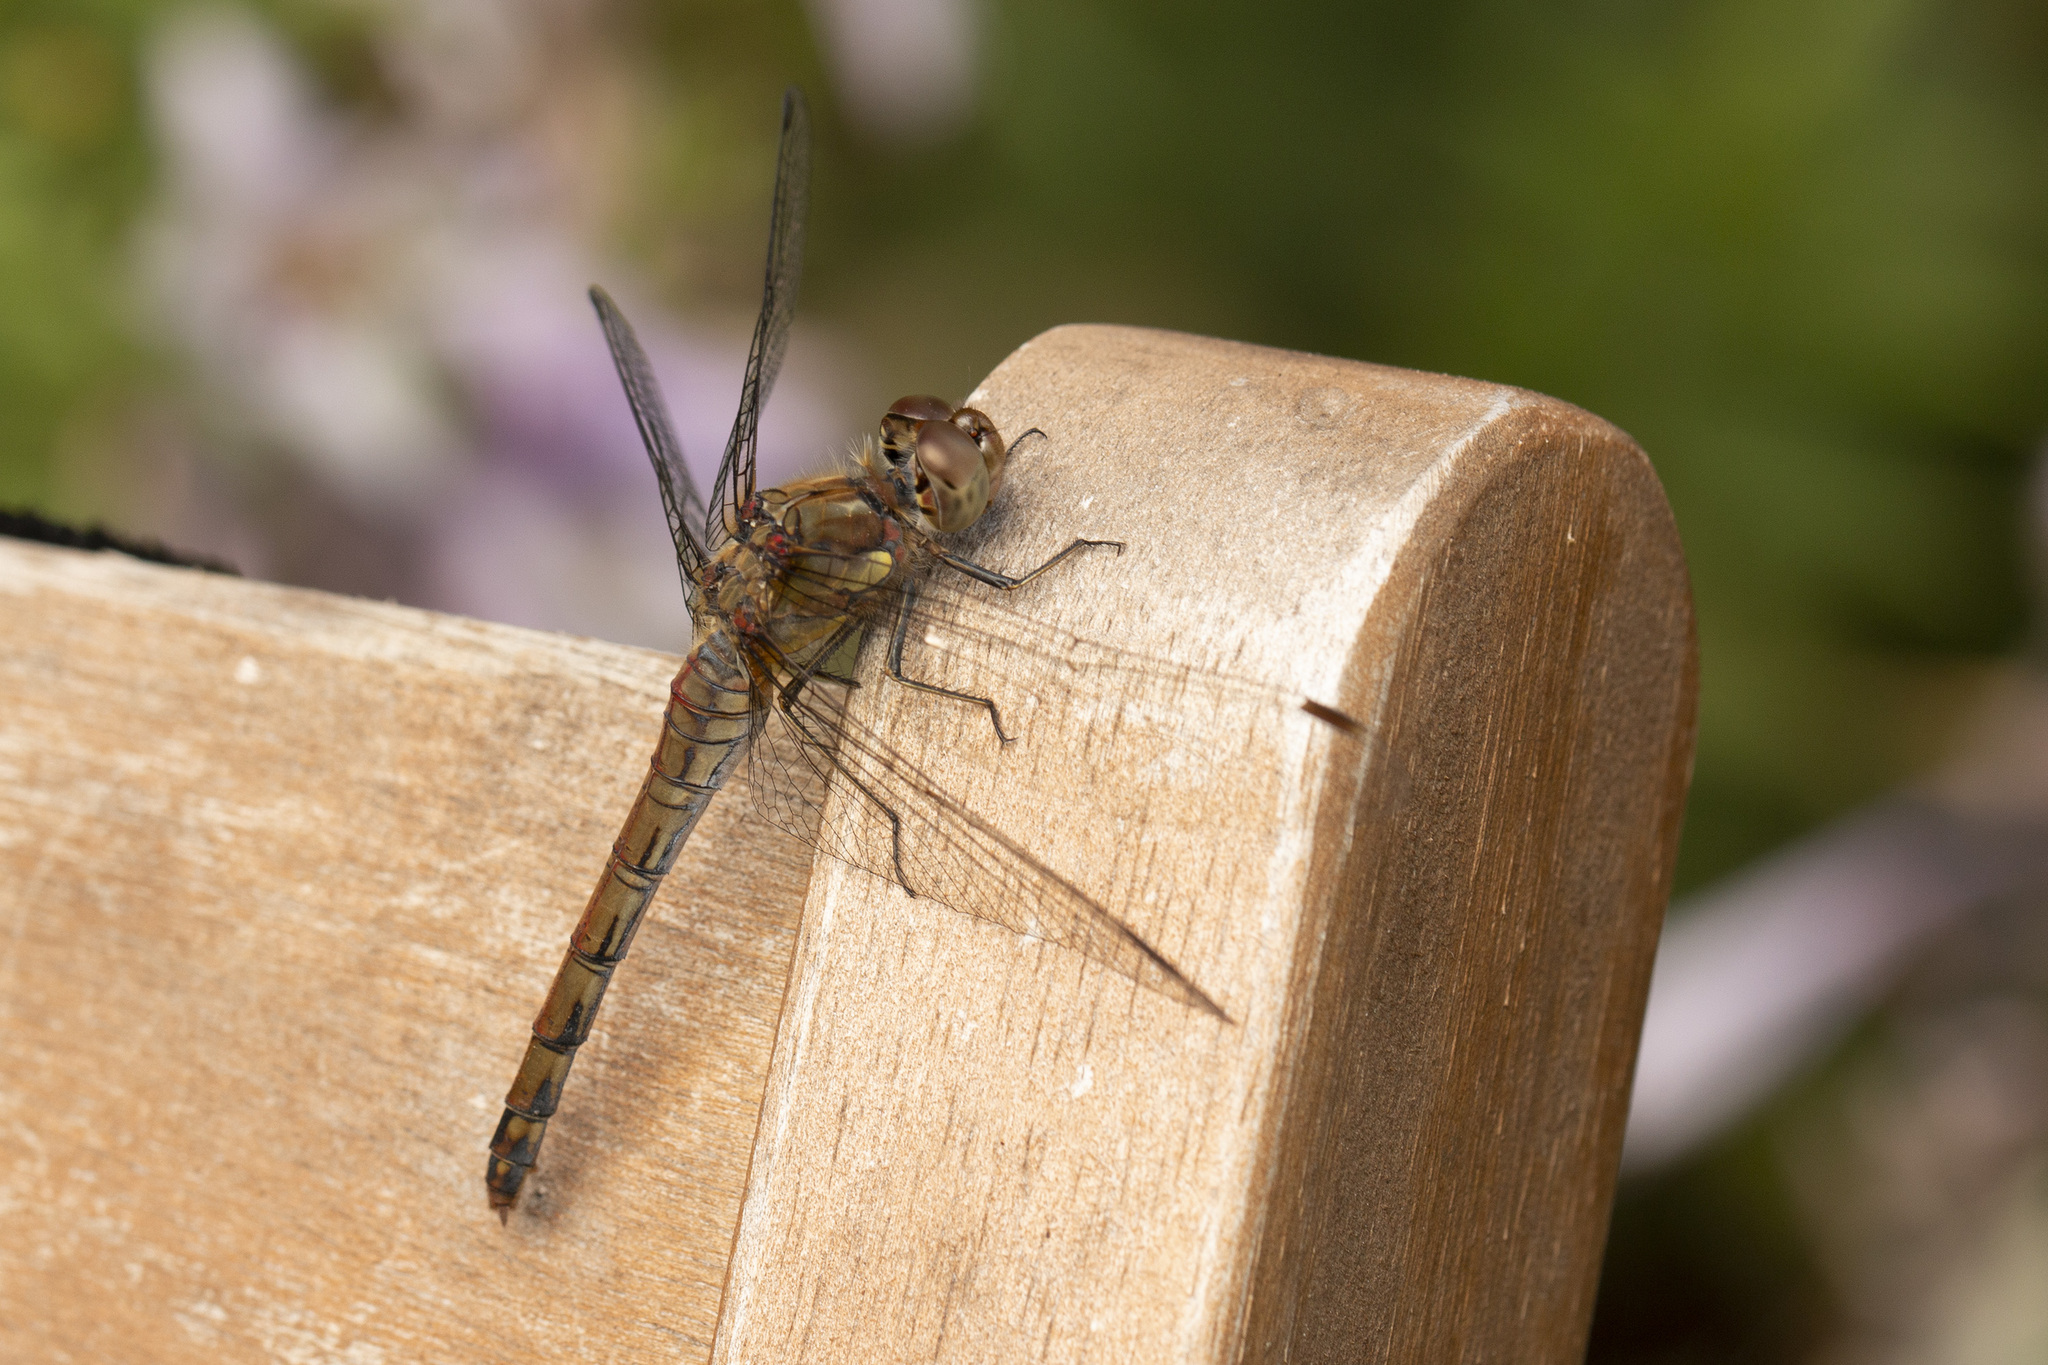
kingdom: Animalia
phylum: Arthropoda
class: Insecta
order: Odonata
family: Libellulidae
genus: Sympetrum
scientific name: Sympetrum striolatum
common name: Common darter
